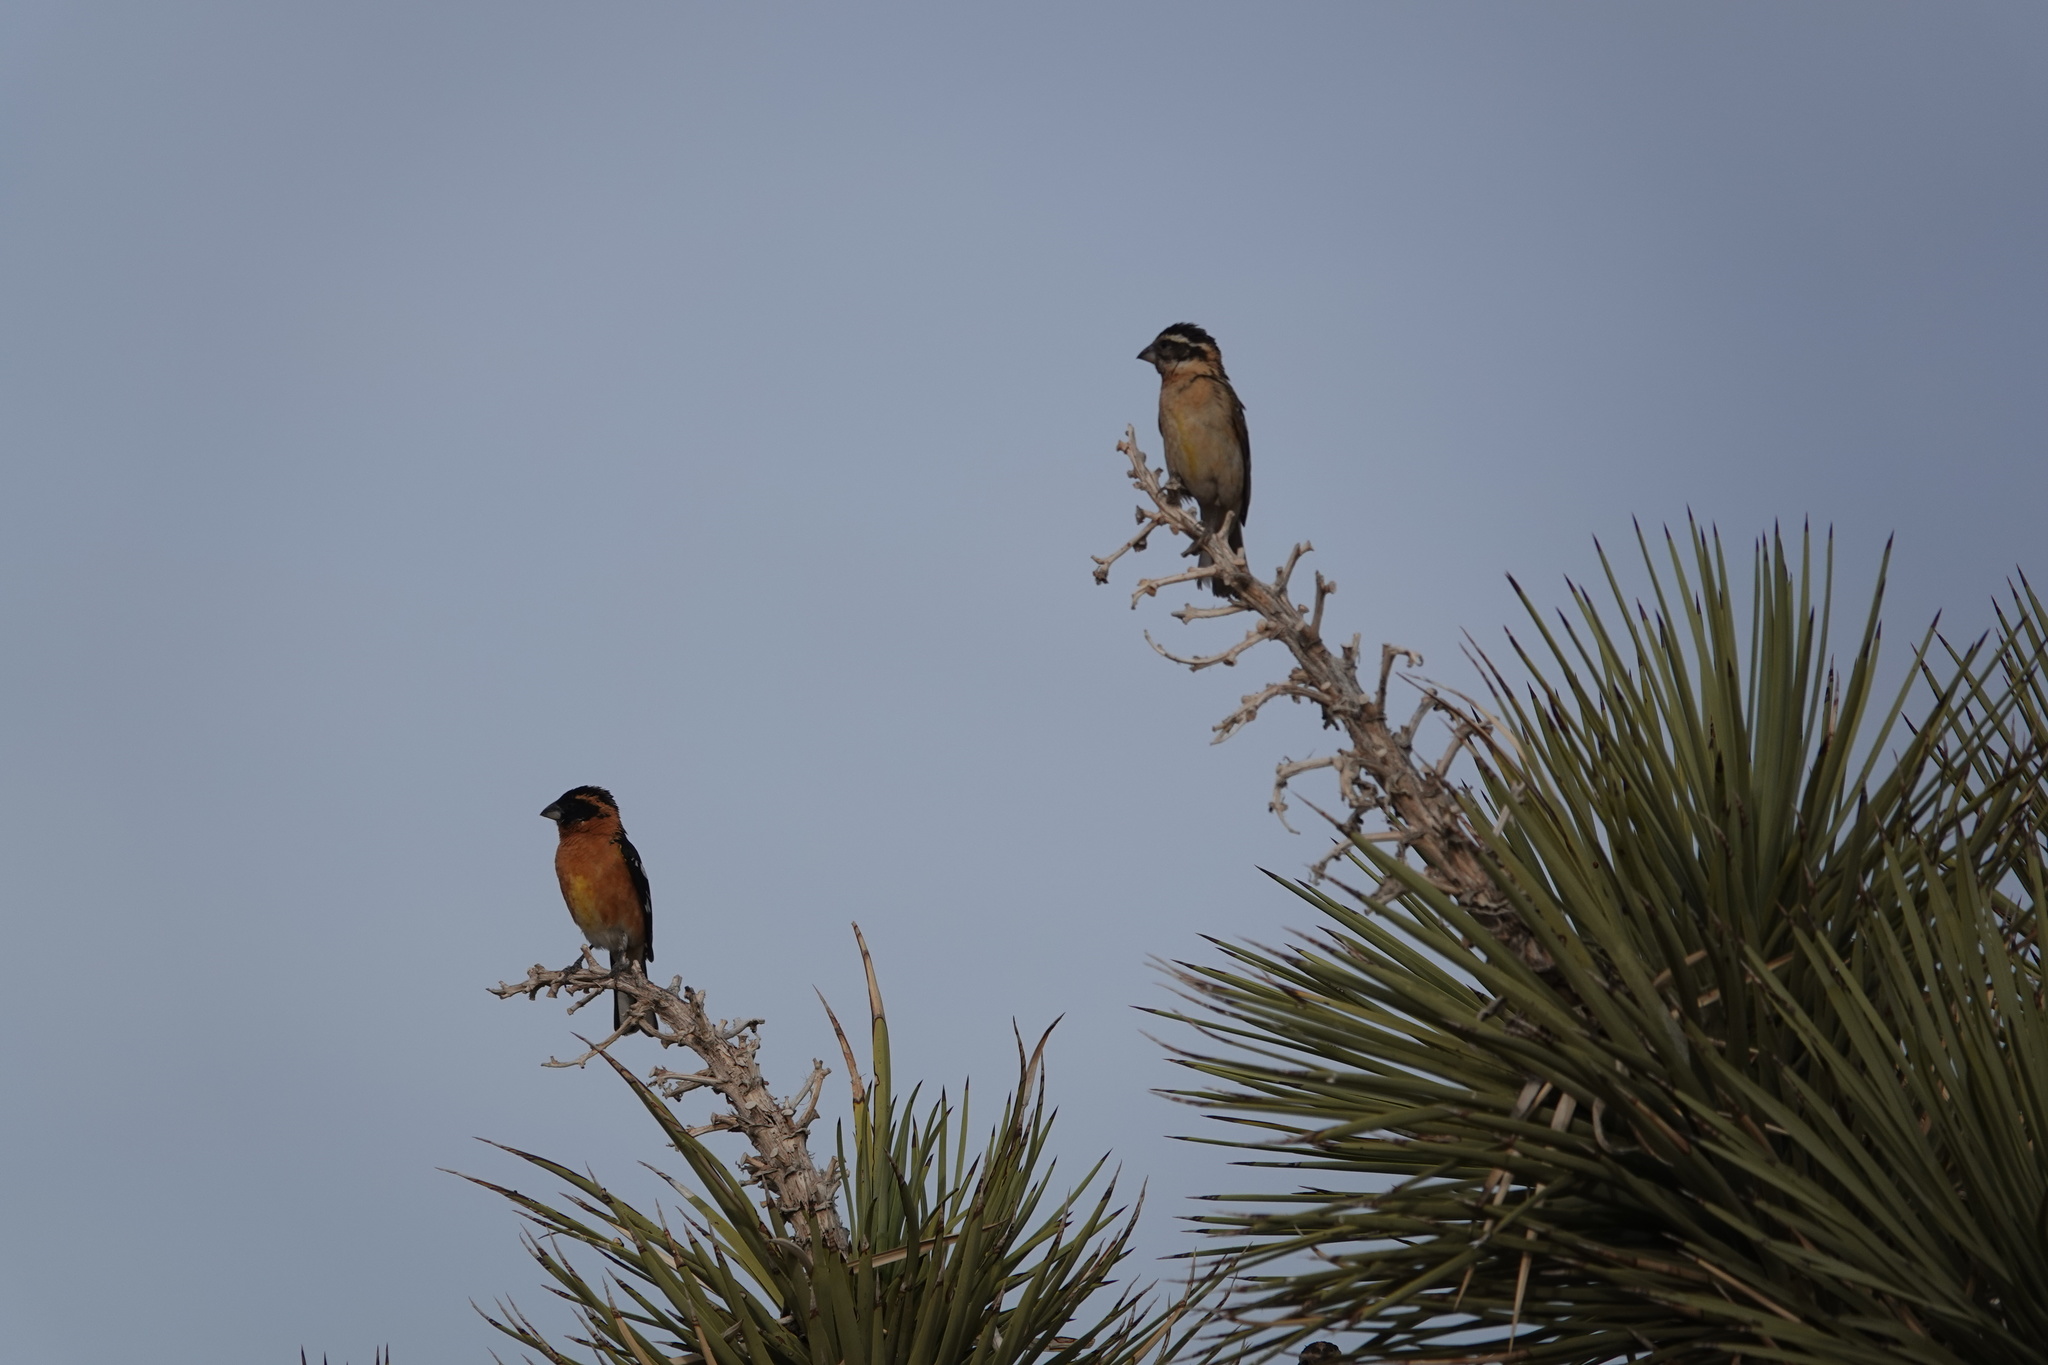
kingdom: Animalia
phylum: Chordata
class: Aves
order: Passeriformes
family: Cardinalidae
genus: Pheucticus
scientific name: Pheucticus melanocephalus
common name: Black-headed grosbeak
